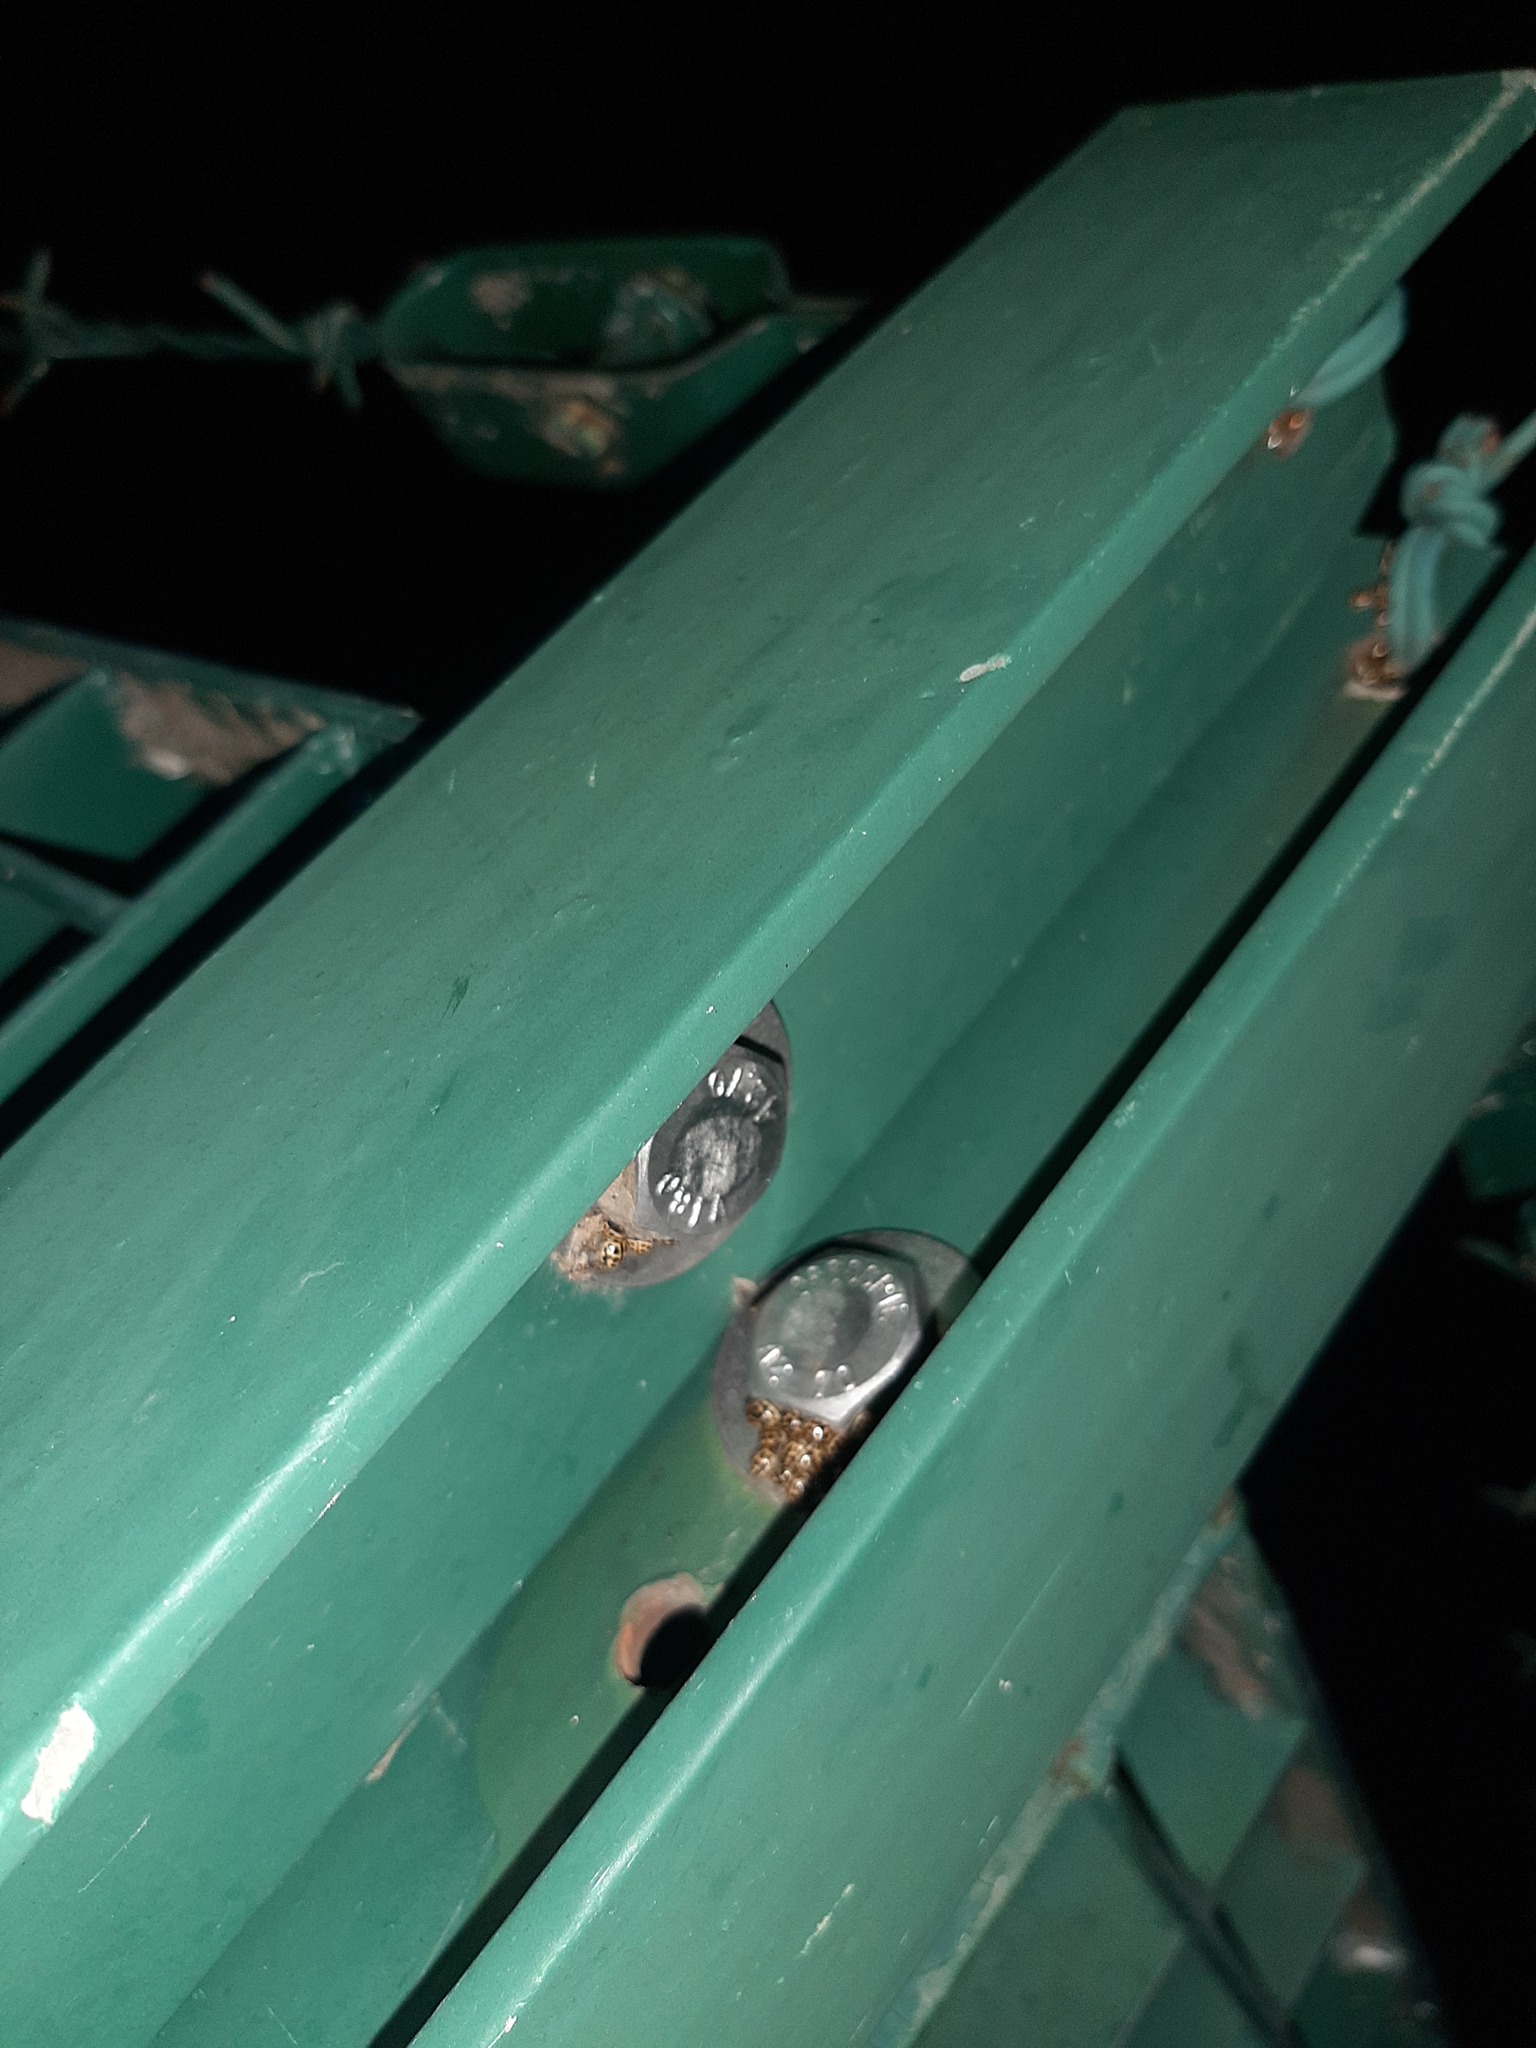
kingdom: Animalia
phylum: Arthropoda
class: Insecta
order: Coleoptera
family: Coccinellidae
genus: Tytthaspis
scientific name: Tytthaspis sedecimpunctata
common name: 16-spot ladybird
